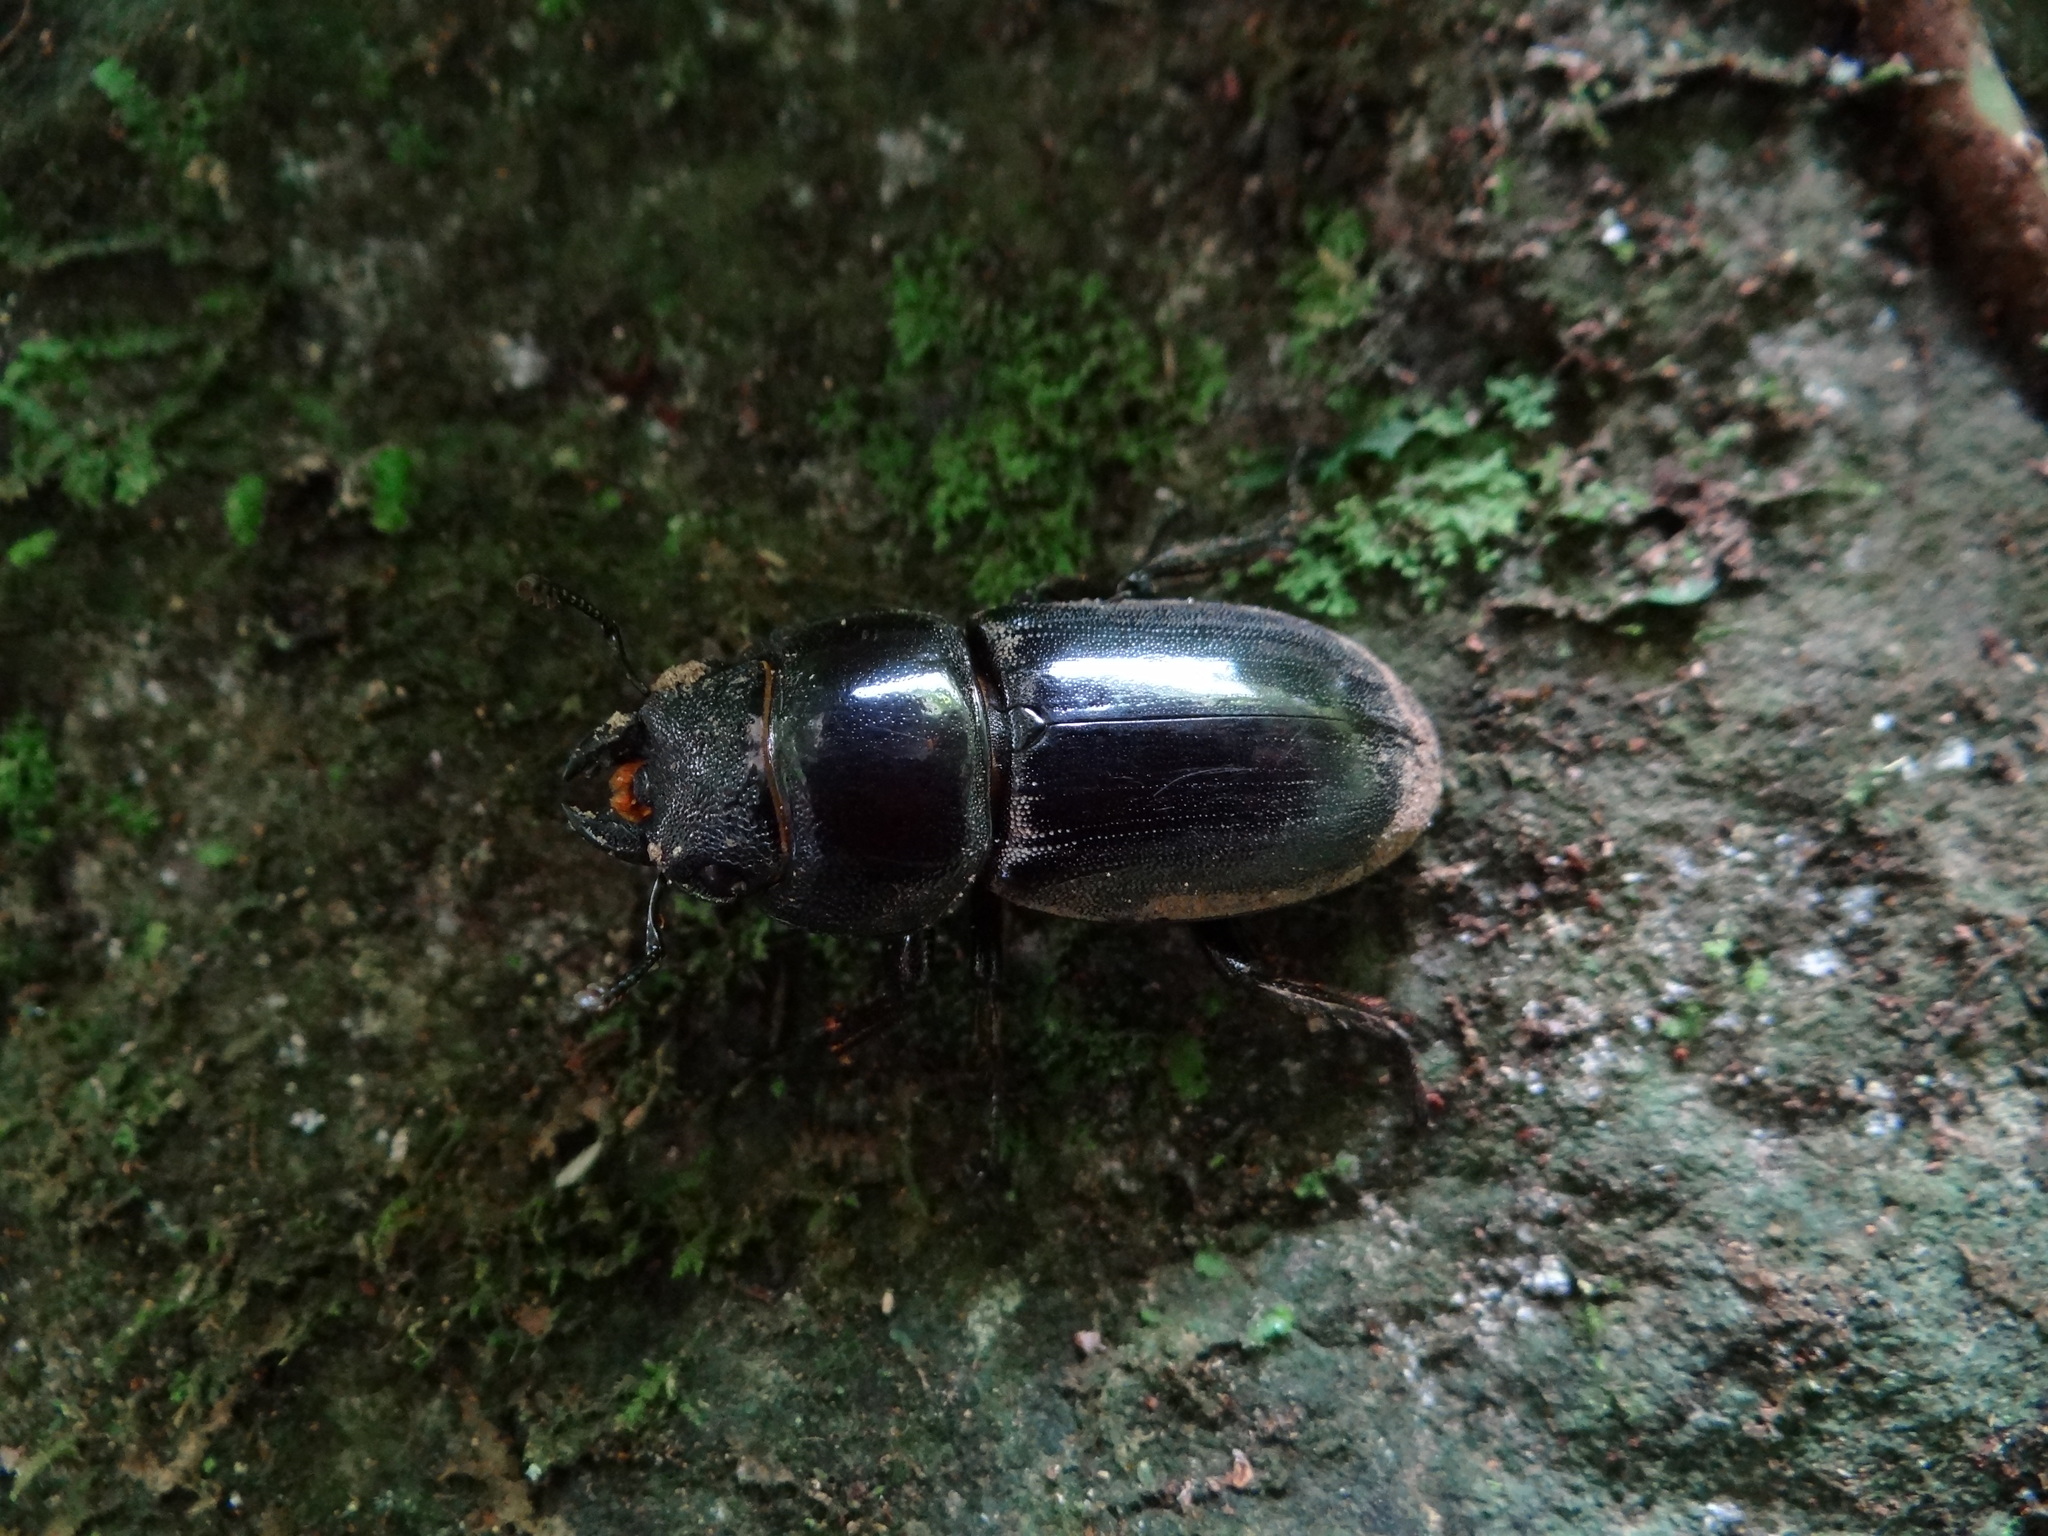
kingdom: Animalia
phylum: Arthropoda
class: Insecta
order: Coleoptera
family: Lucanidae
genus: Serrognathus
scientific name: Serrognathus titanus
